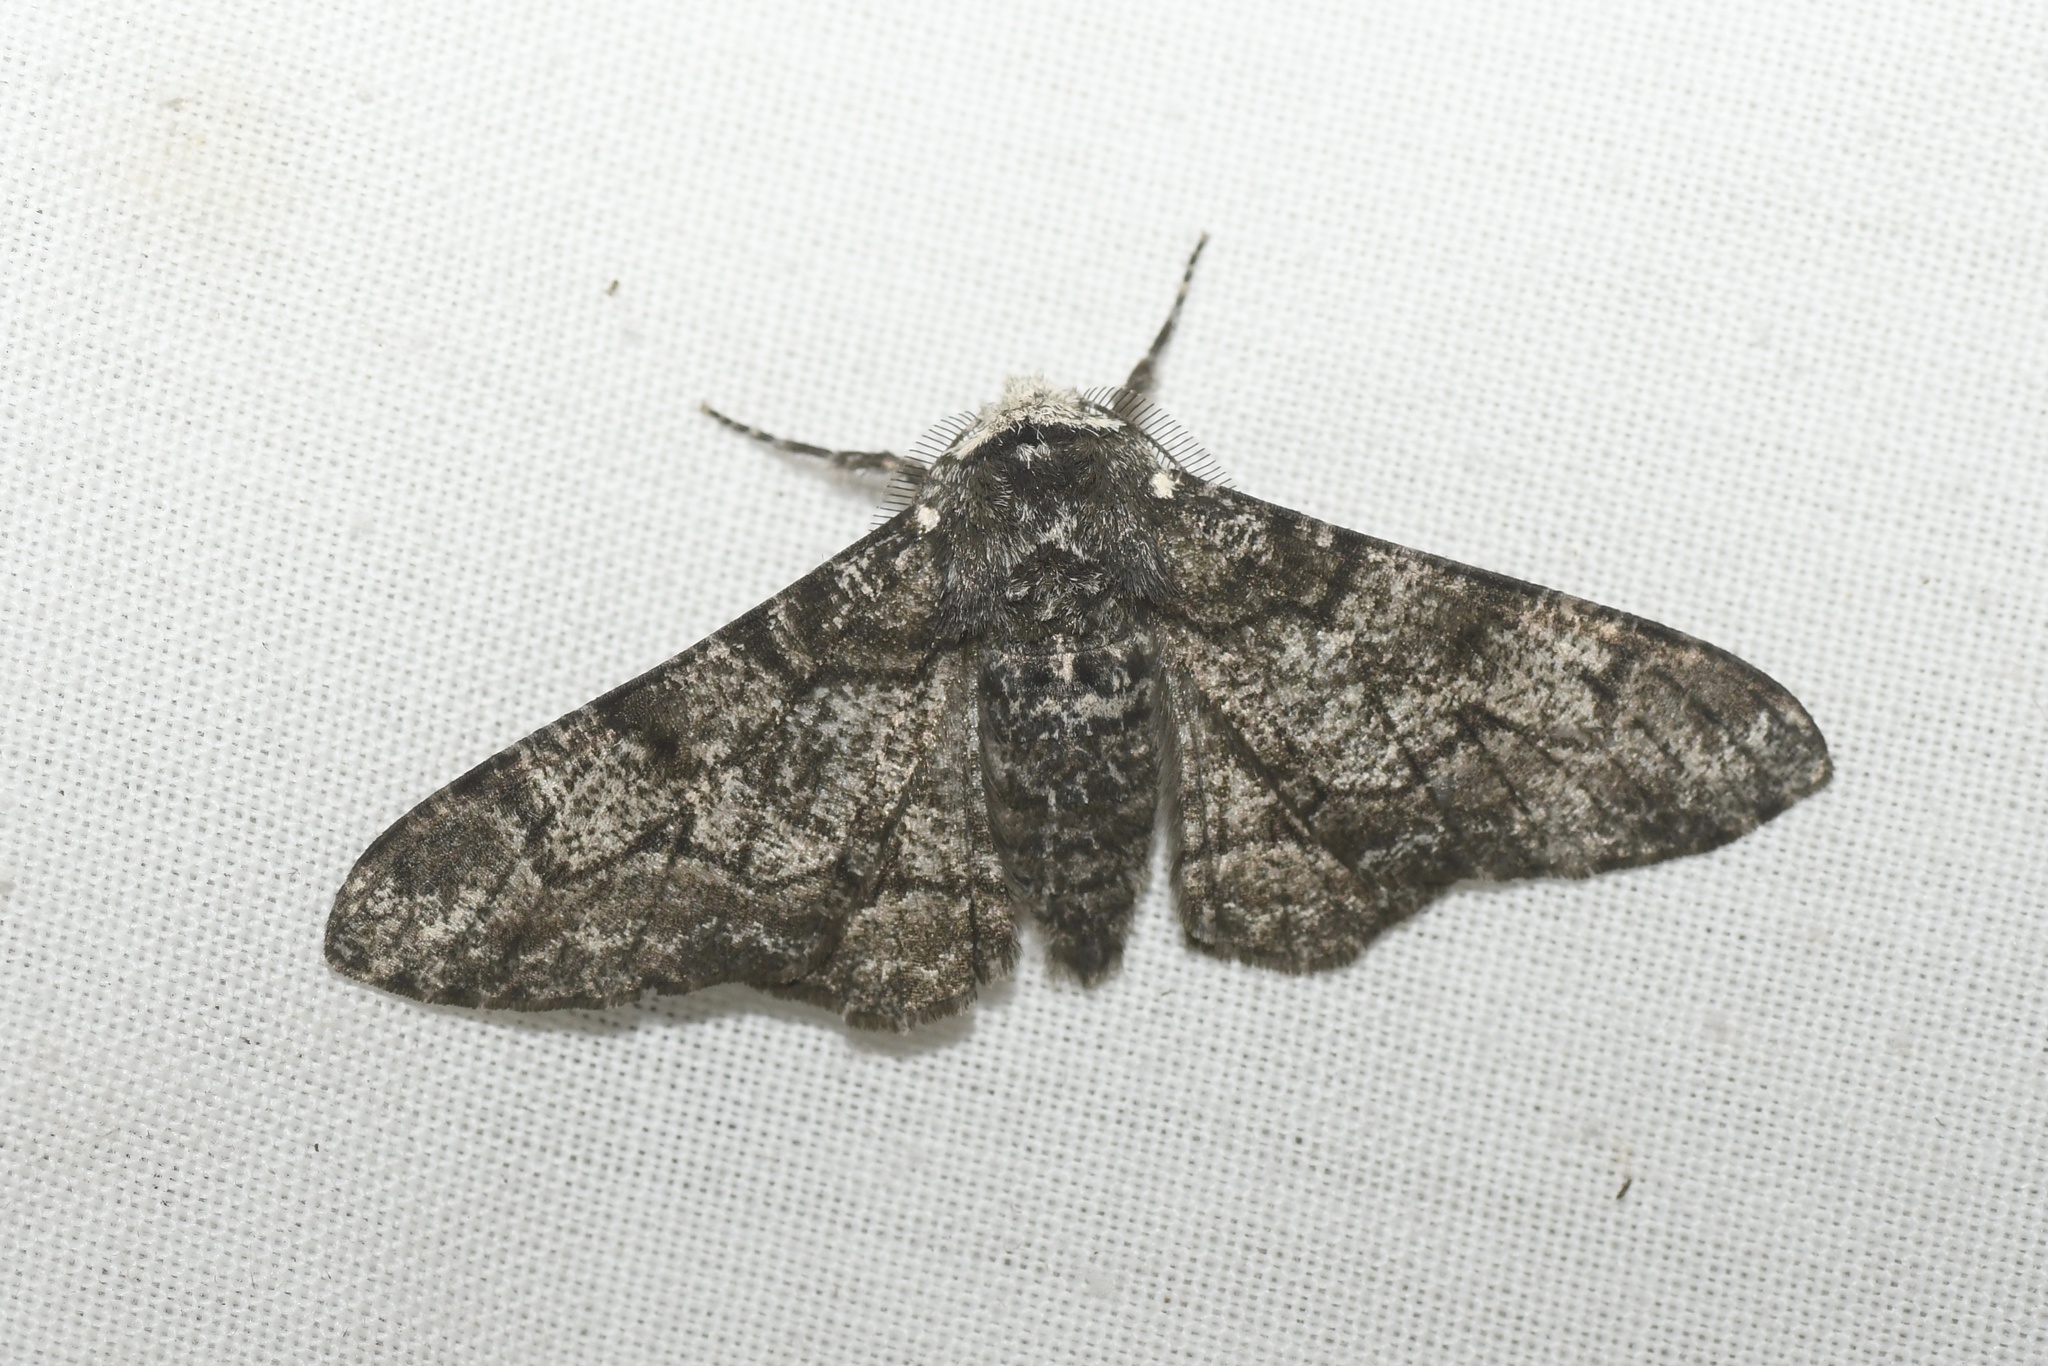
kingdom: Animalia
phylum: Arthropoda
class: Insecta
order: Lepidoptera
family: Geometridae
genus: Biston
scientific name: Biston betularia
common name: Peppered moth
